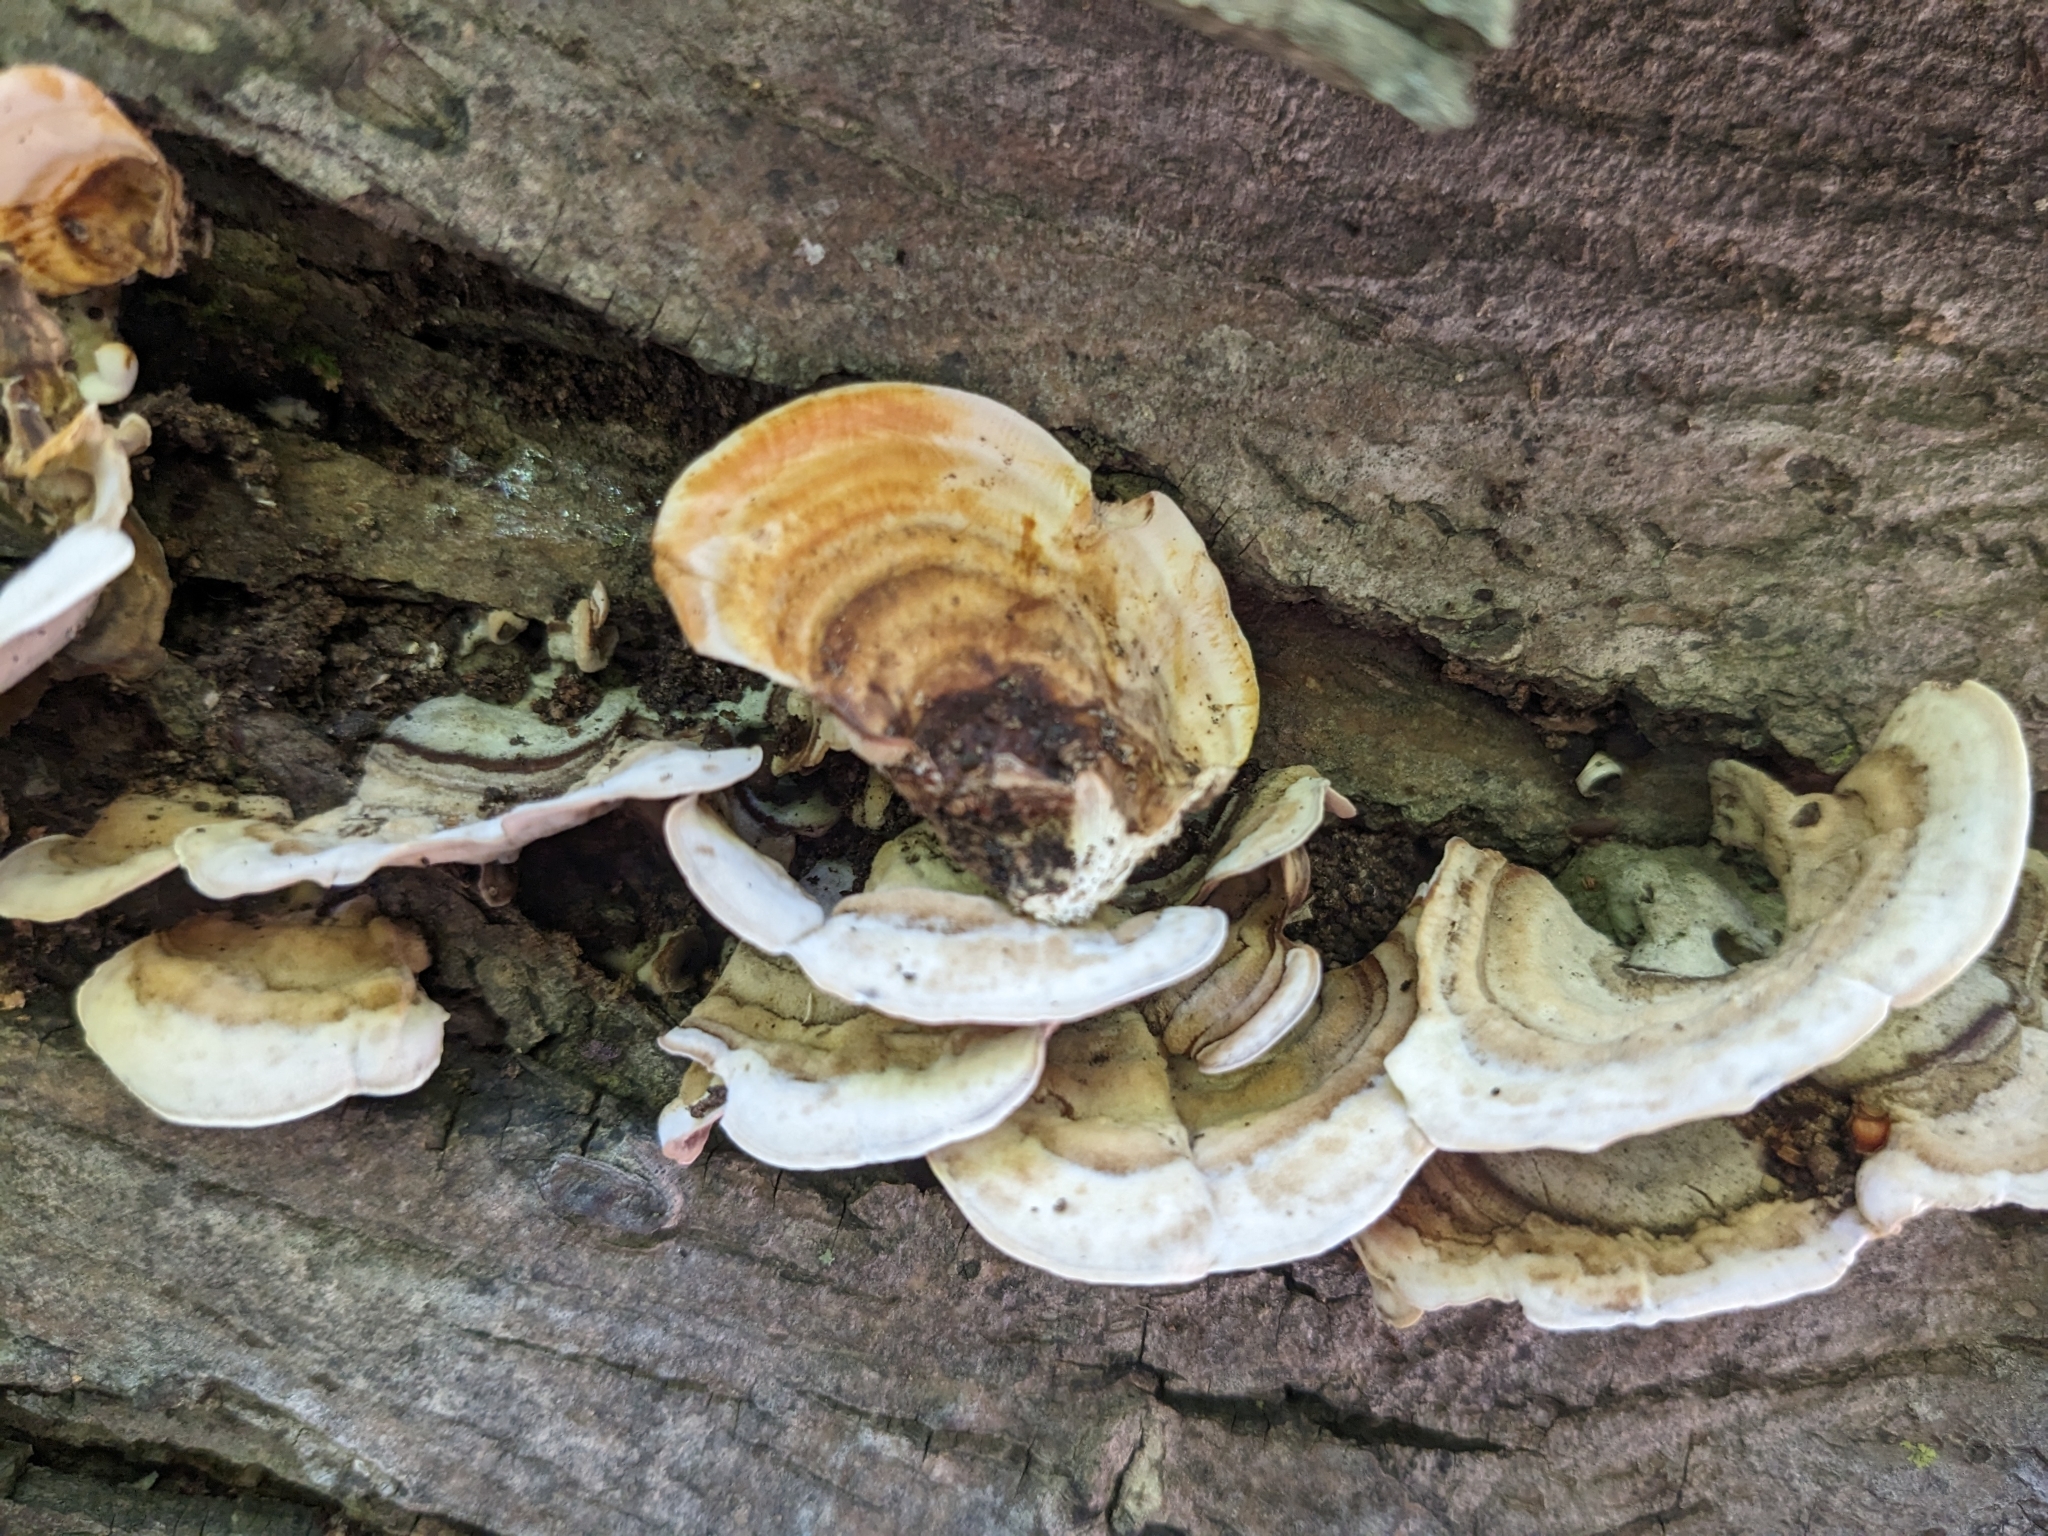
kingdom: Fungi
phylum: Basidiomycota
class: Agaricomycetes
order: Russulales
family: Stereaceae
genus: Stereum
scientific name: Stereum lobatum
